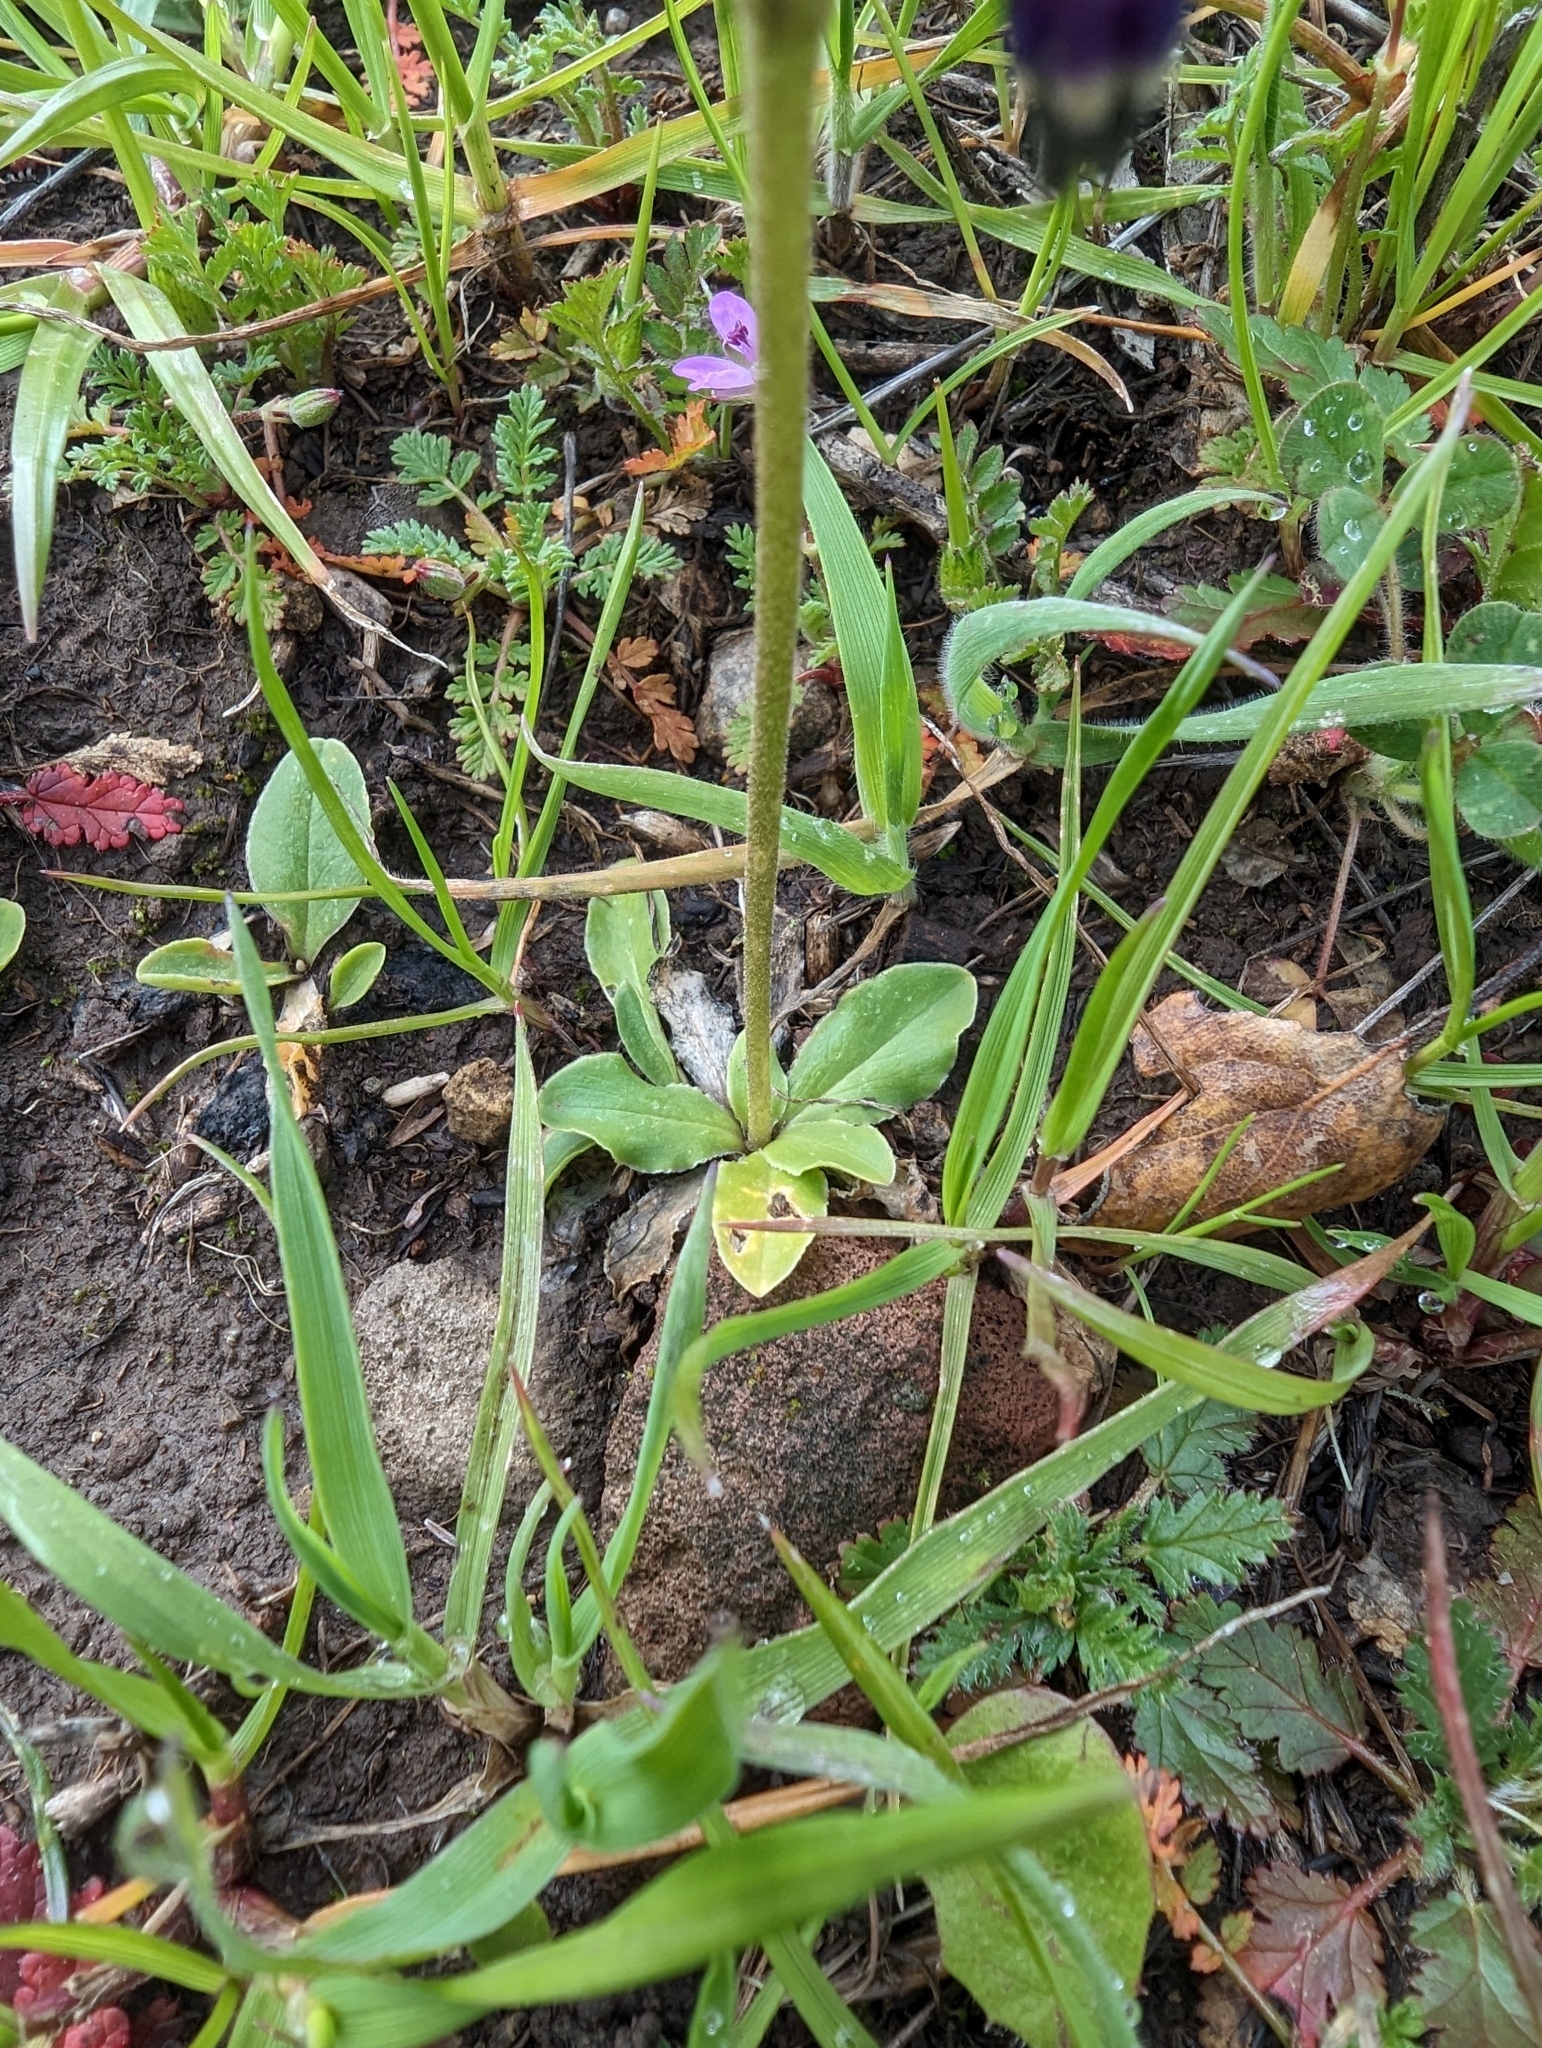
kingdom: Plantae
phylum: Tracheophyta
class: Magnoliopsida
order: Ericales
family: Primulaceae
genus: Dodecatheon
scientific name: Dodecatheon clevelandii
